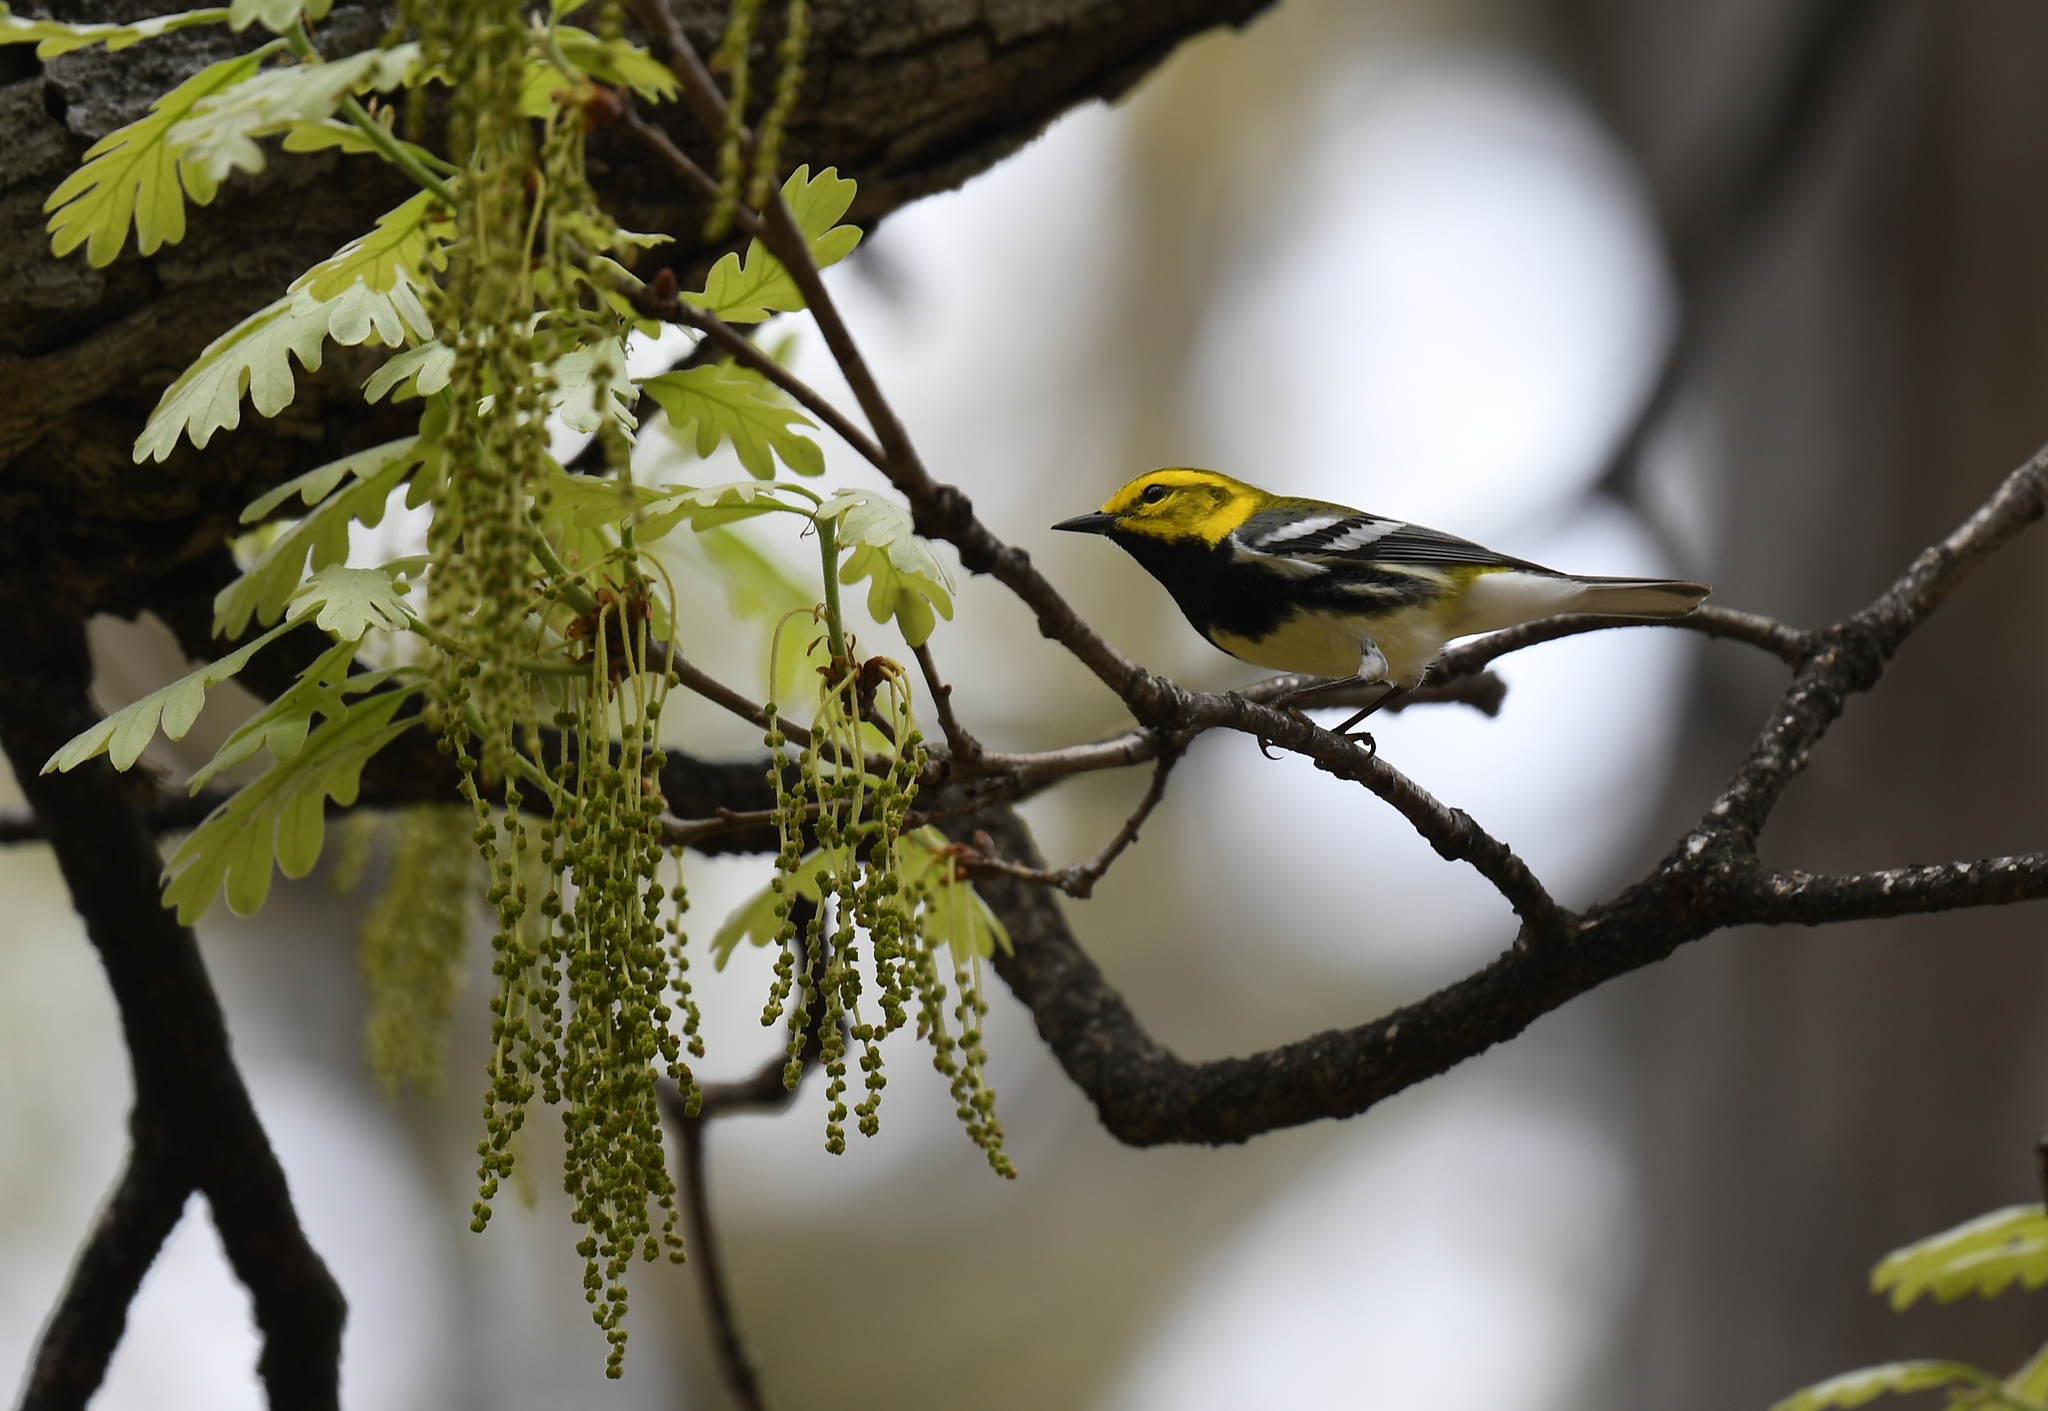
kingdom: Animalia
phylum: Chordata
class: Aves
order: Passeriformes
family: Parulidae
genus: Setophaga
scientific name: Setophaga virens
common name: Black-throated green warbler
